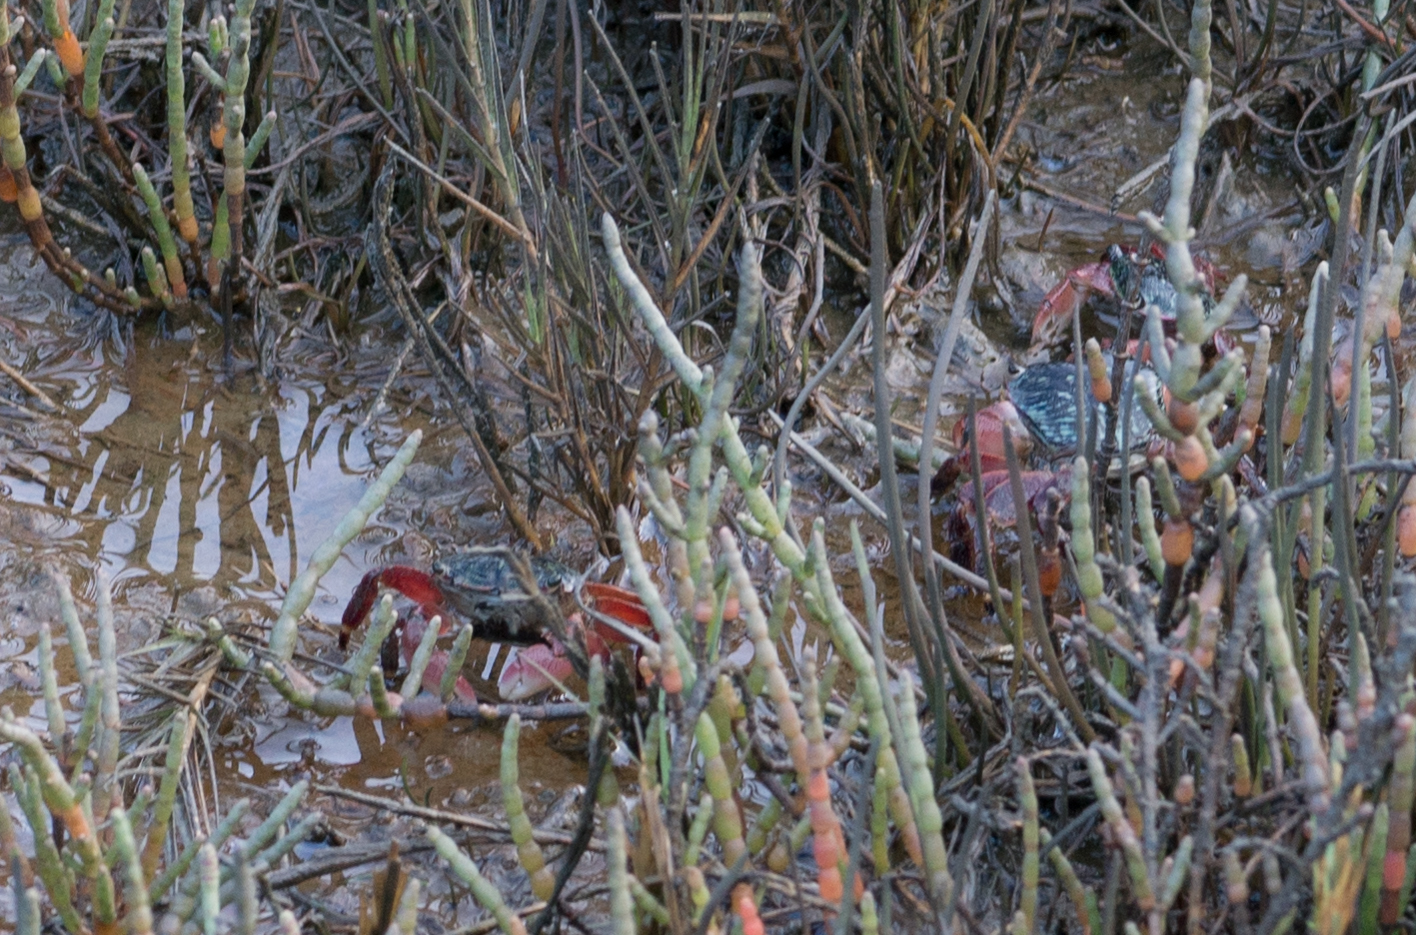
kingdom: Animalia
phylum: Arthropoda
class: Malacostraca
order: Decapoda
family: Grapsidae
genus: Pachygrapsus
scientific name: Pachygrapsus crassipes
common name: Striped shore crab
